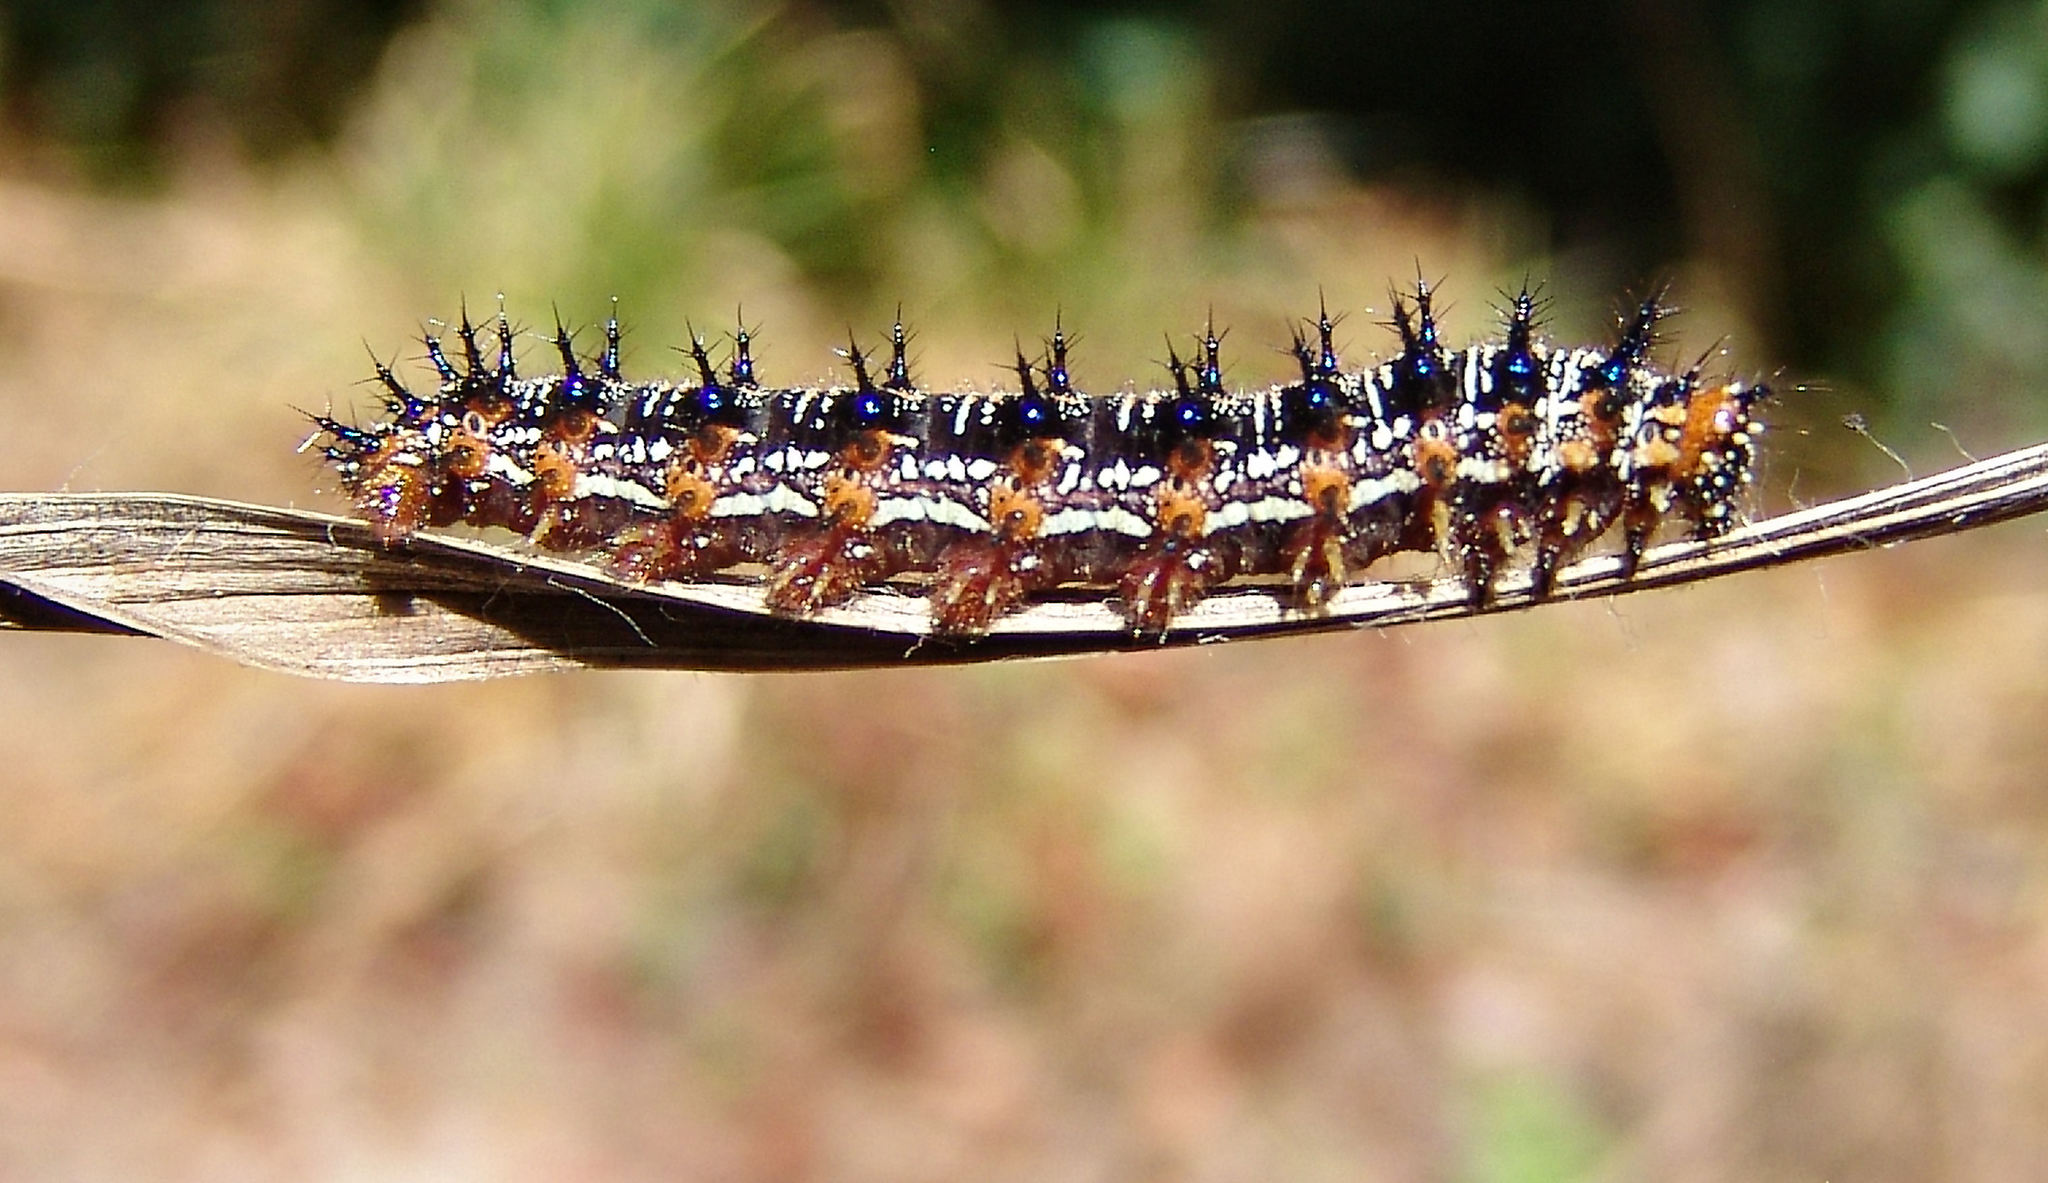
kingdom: Animalia
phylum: Arthropoda
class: Insecta
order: Lepidoptera
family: Nymphalidae
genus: Junonia
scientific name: Junonia coenia
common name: Common buckeye
